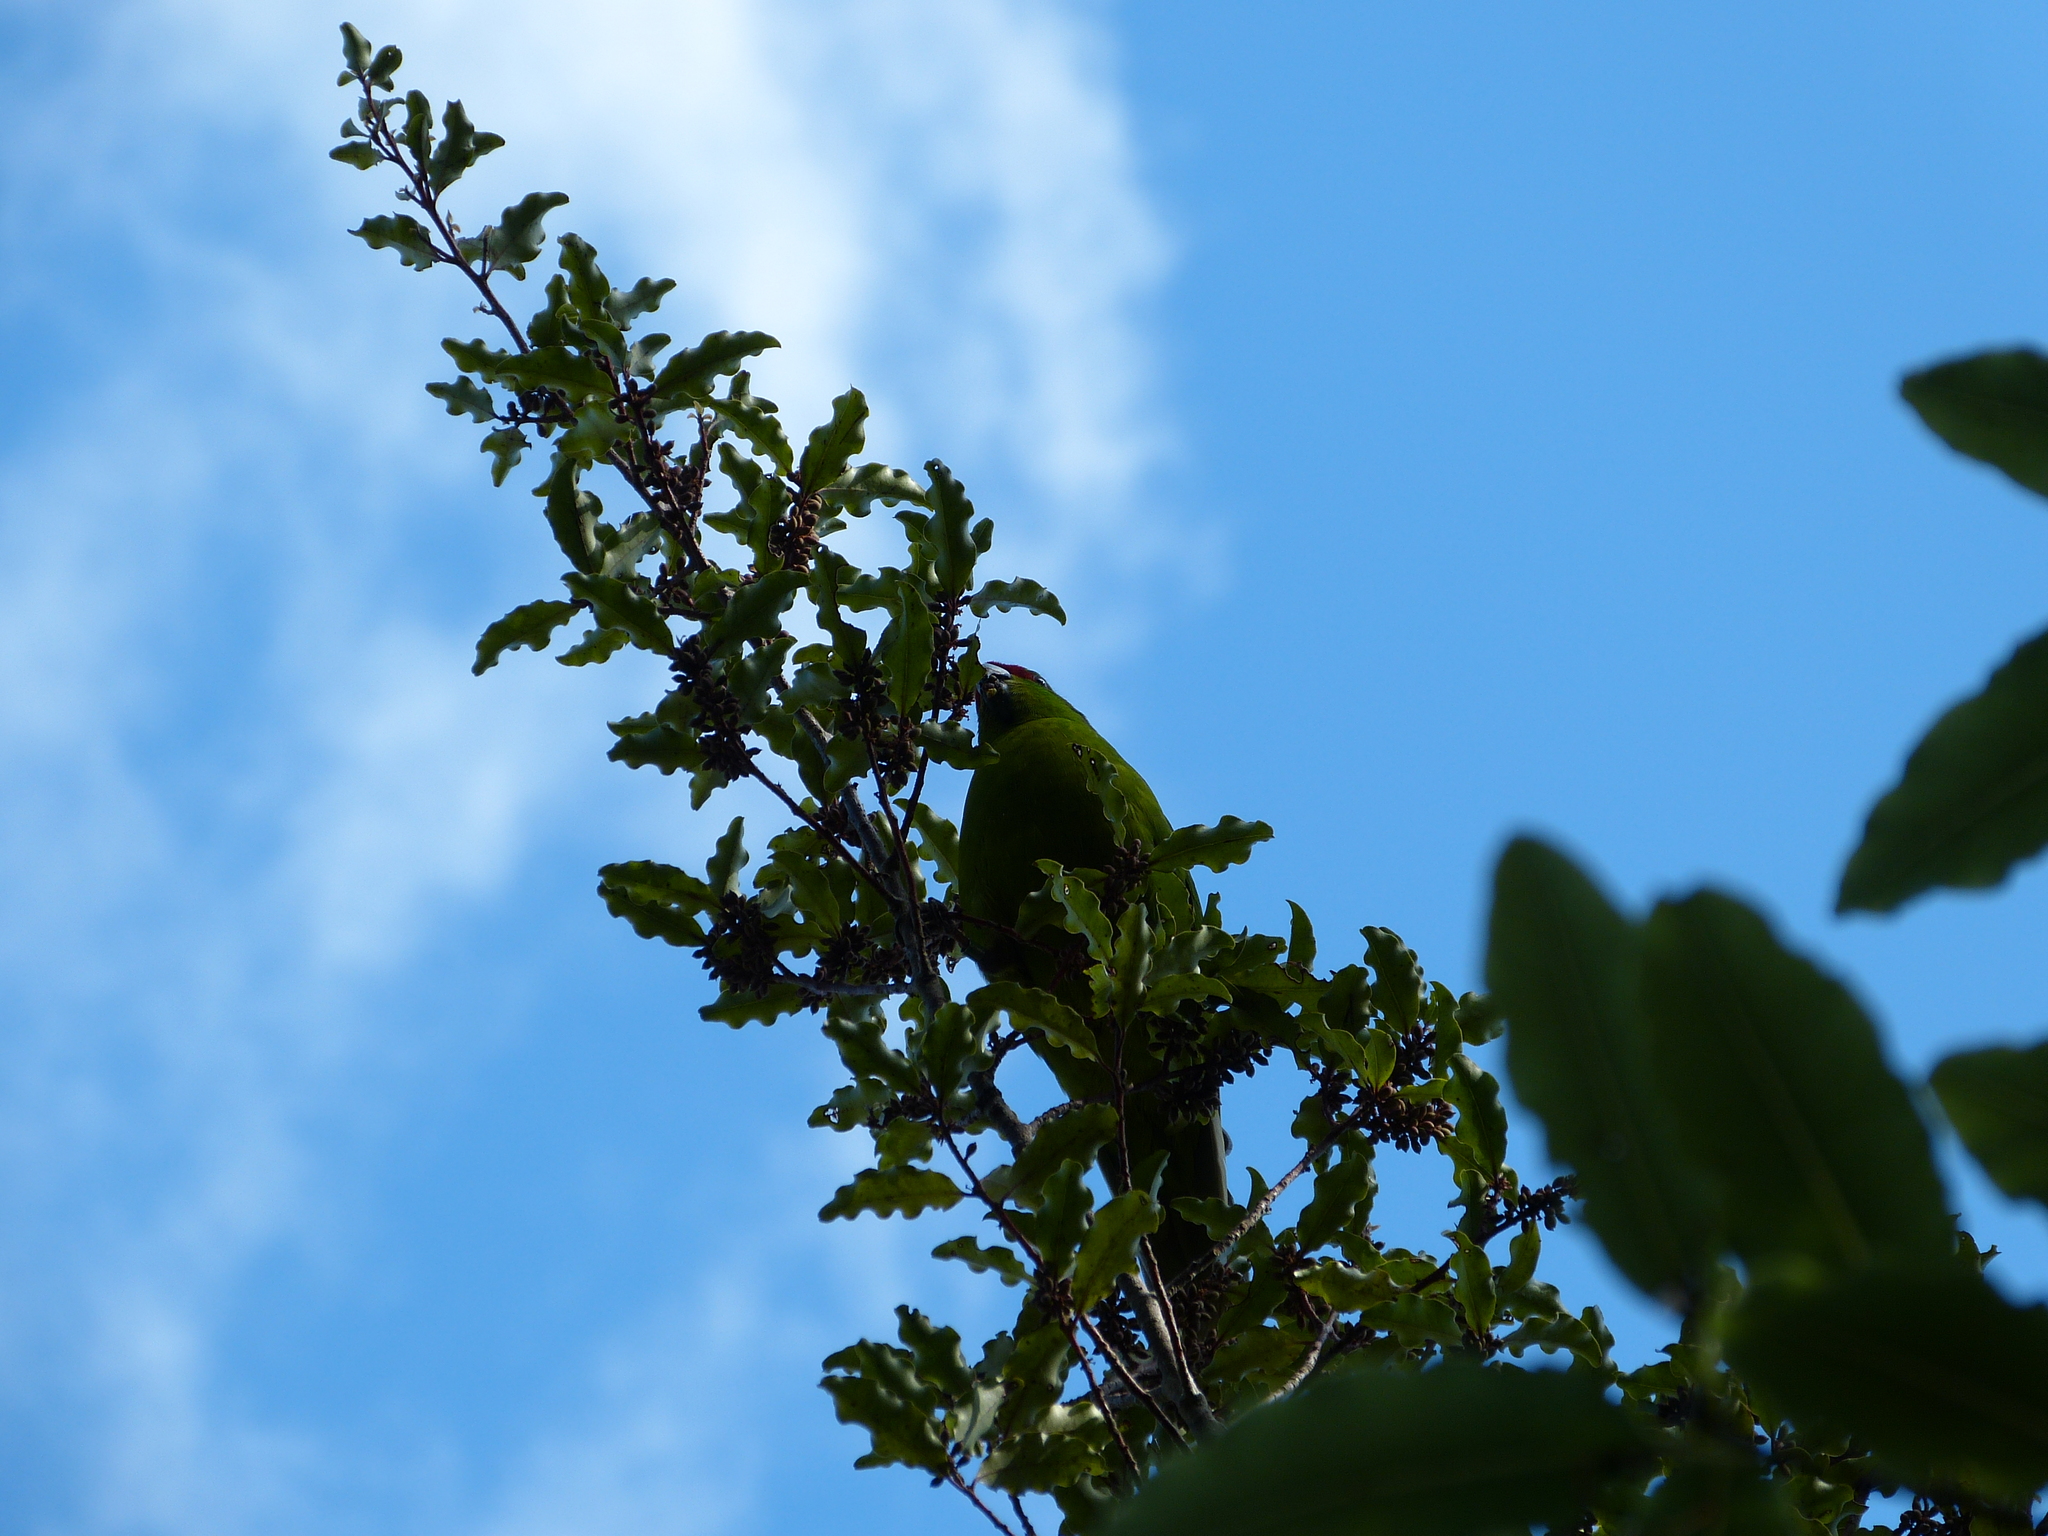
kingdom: Animalia
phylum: Chordata
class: Aves
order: Psittaciformes
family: Psittacidae
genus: Cyanoramphus
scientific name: Cyanoramphus novaezelandiae
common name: Red-fronted parakeet
